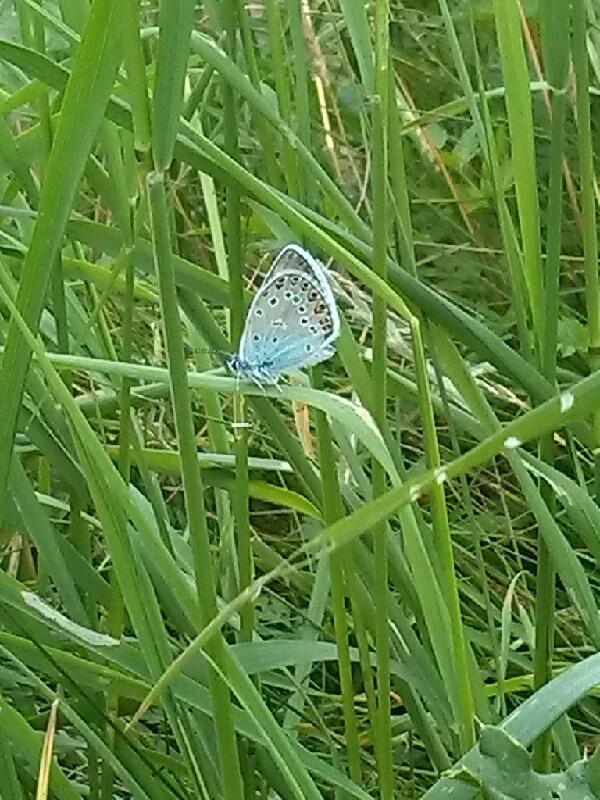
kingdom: Animalia
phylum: Arthropoda
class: Insecta
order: Lepidoptera
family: Lycaenidae
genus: Plebejus
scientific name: Plebejus amanda
